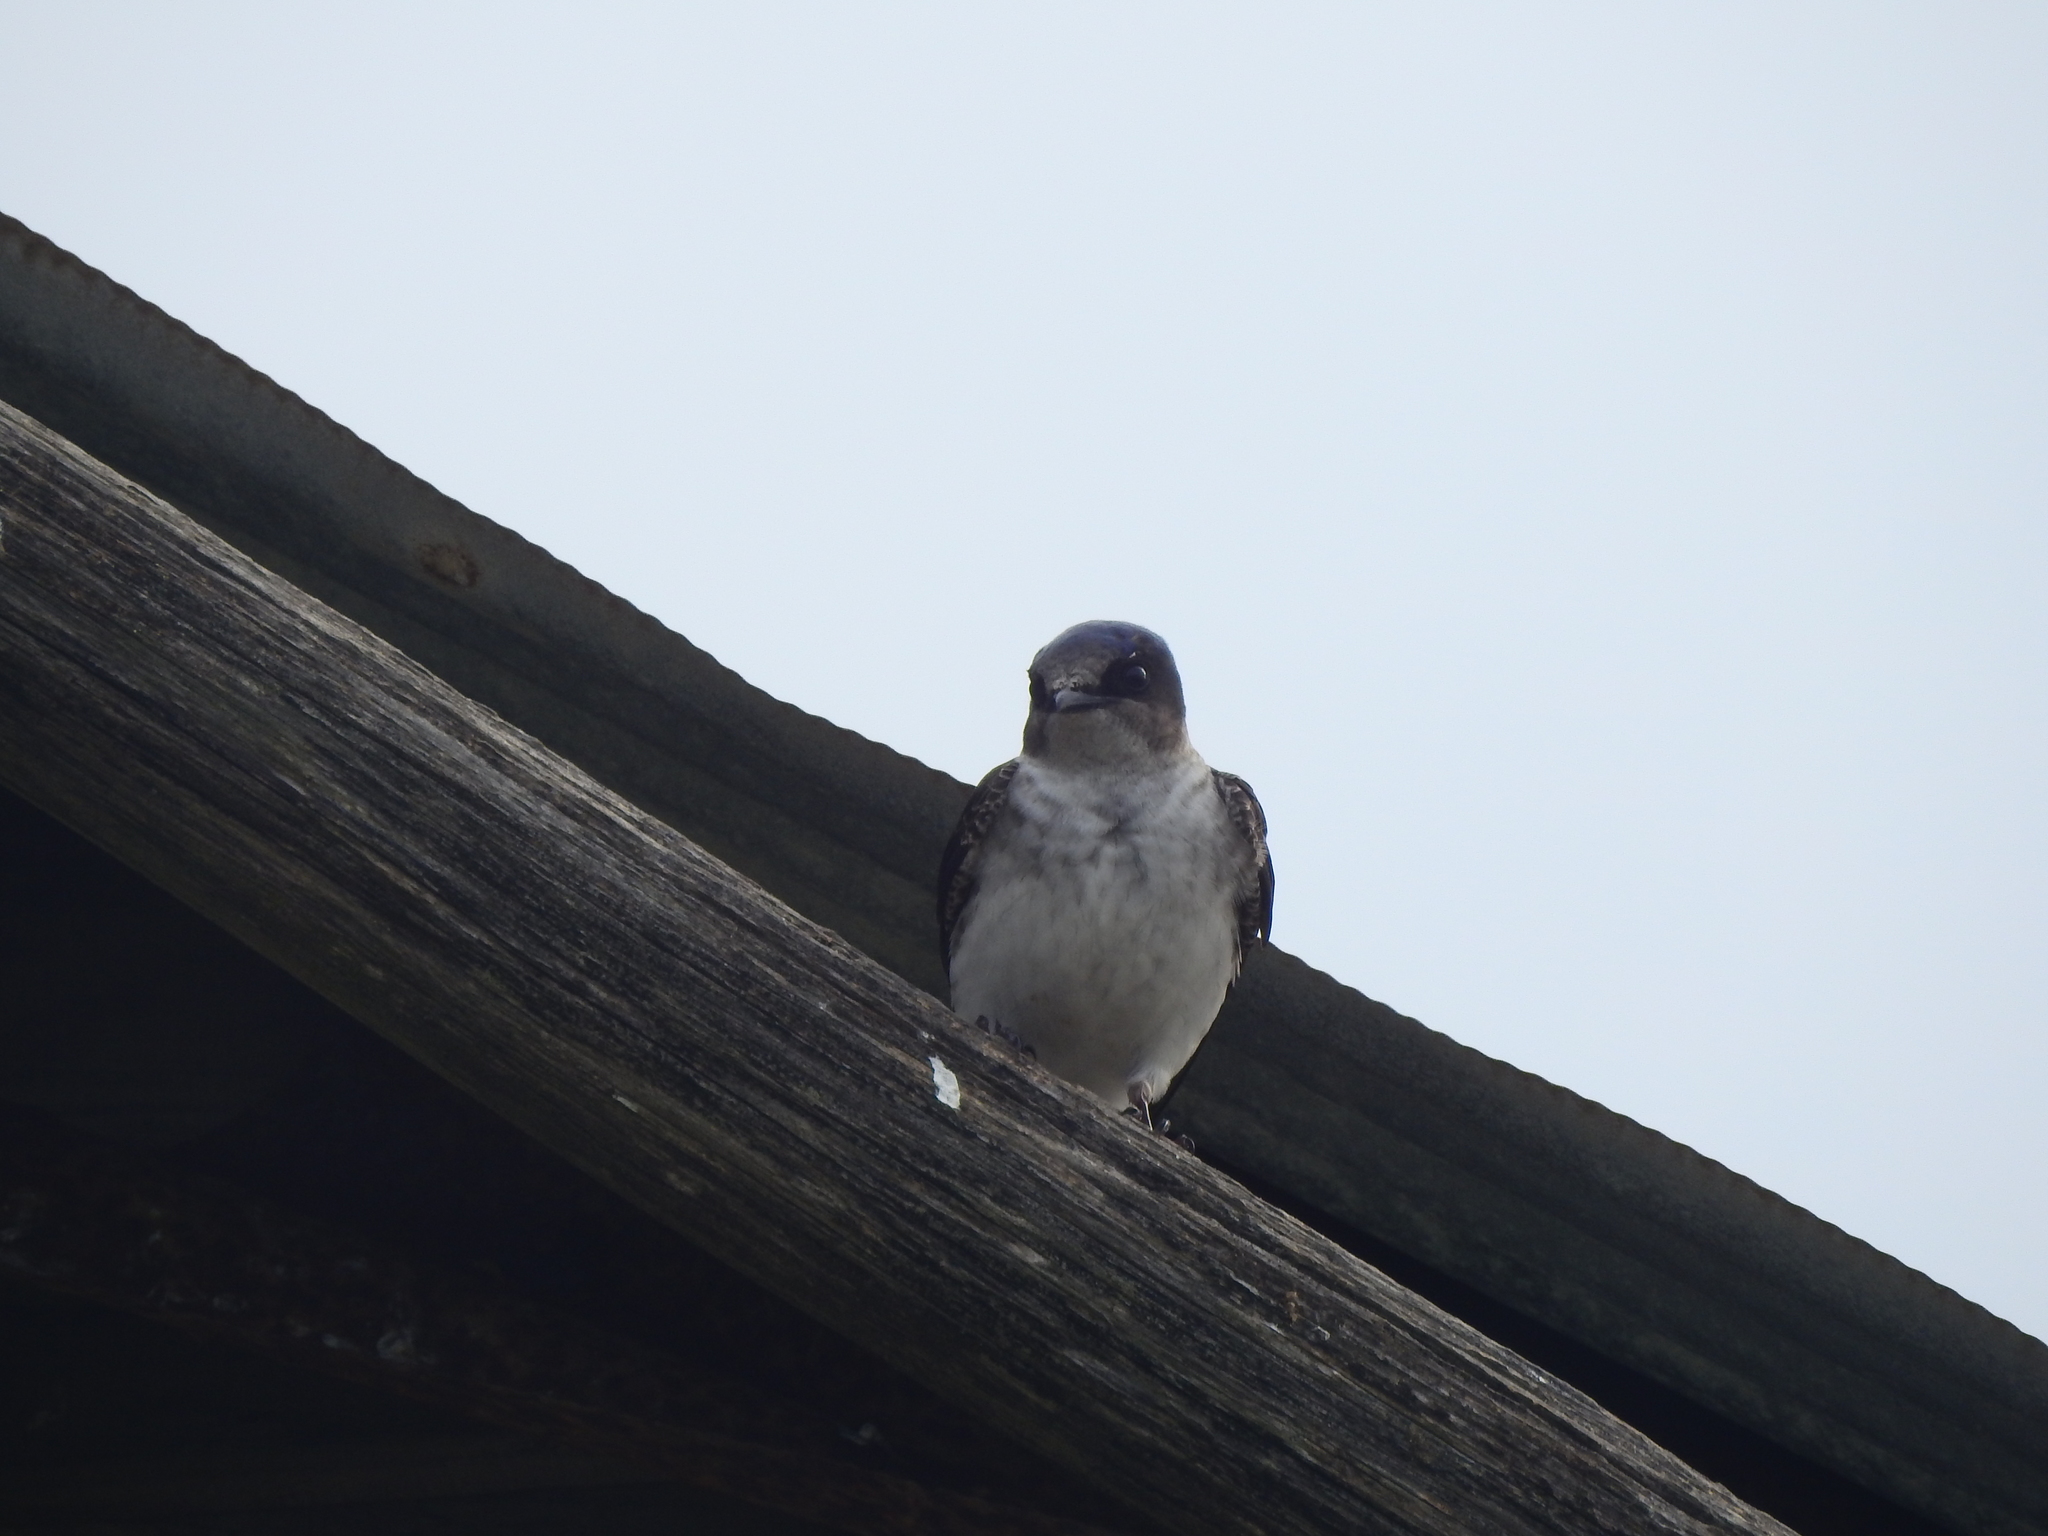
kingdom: Animalia
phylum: Chordata
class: Aves
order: Passeriformes
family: Hirundinidae
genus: Progne
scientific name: Progne chalybea
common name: Grey-breasted martin
